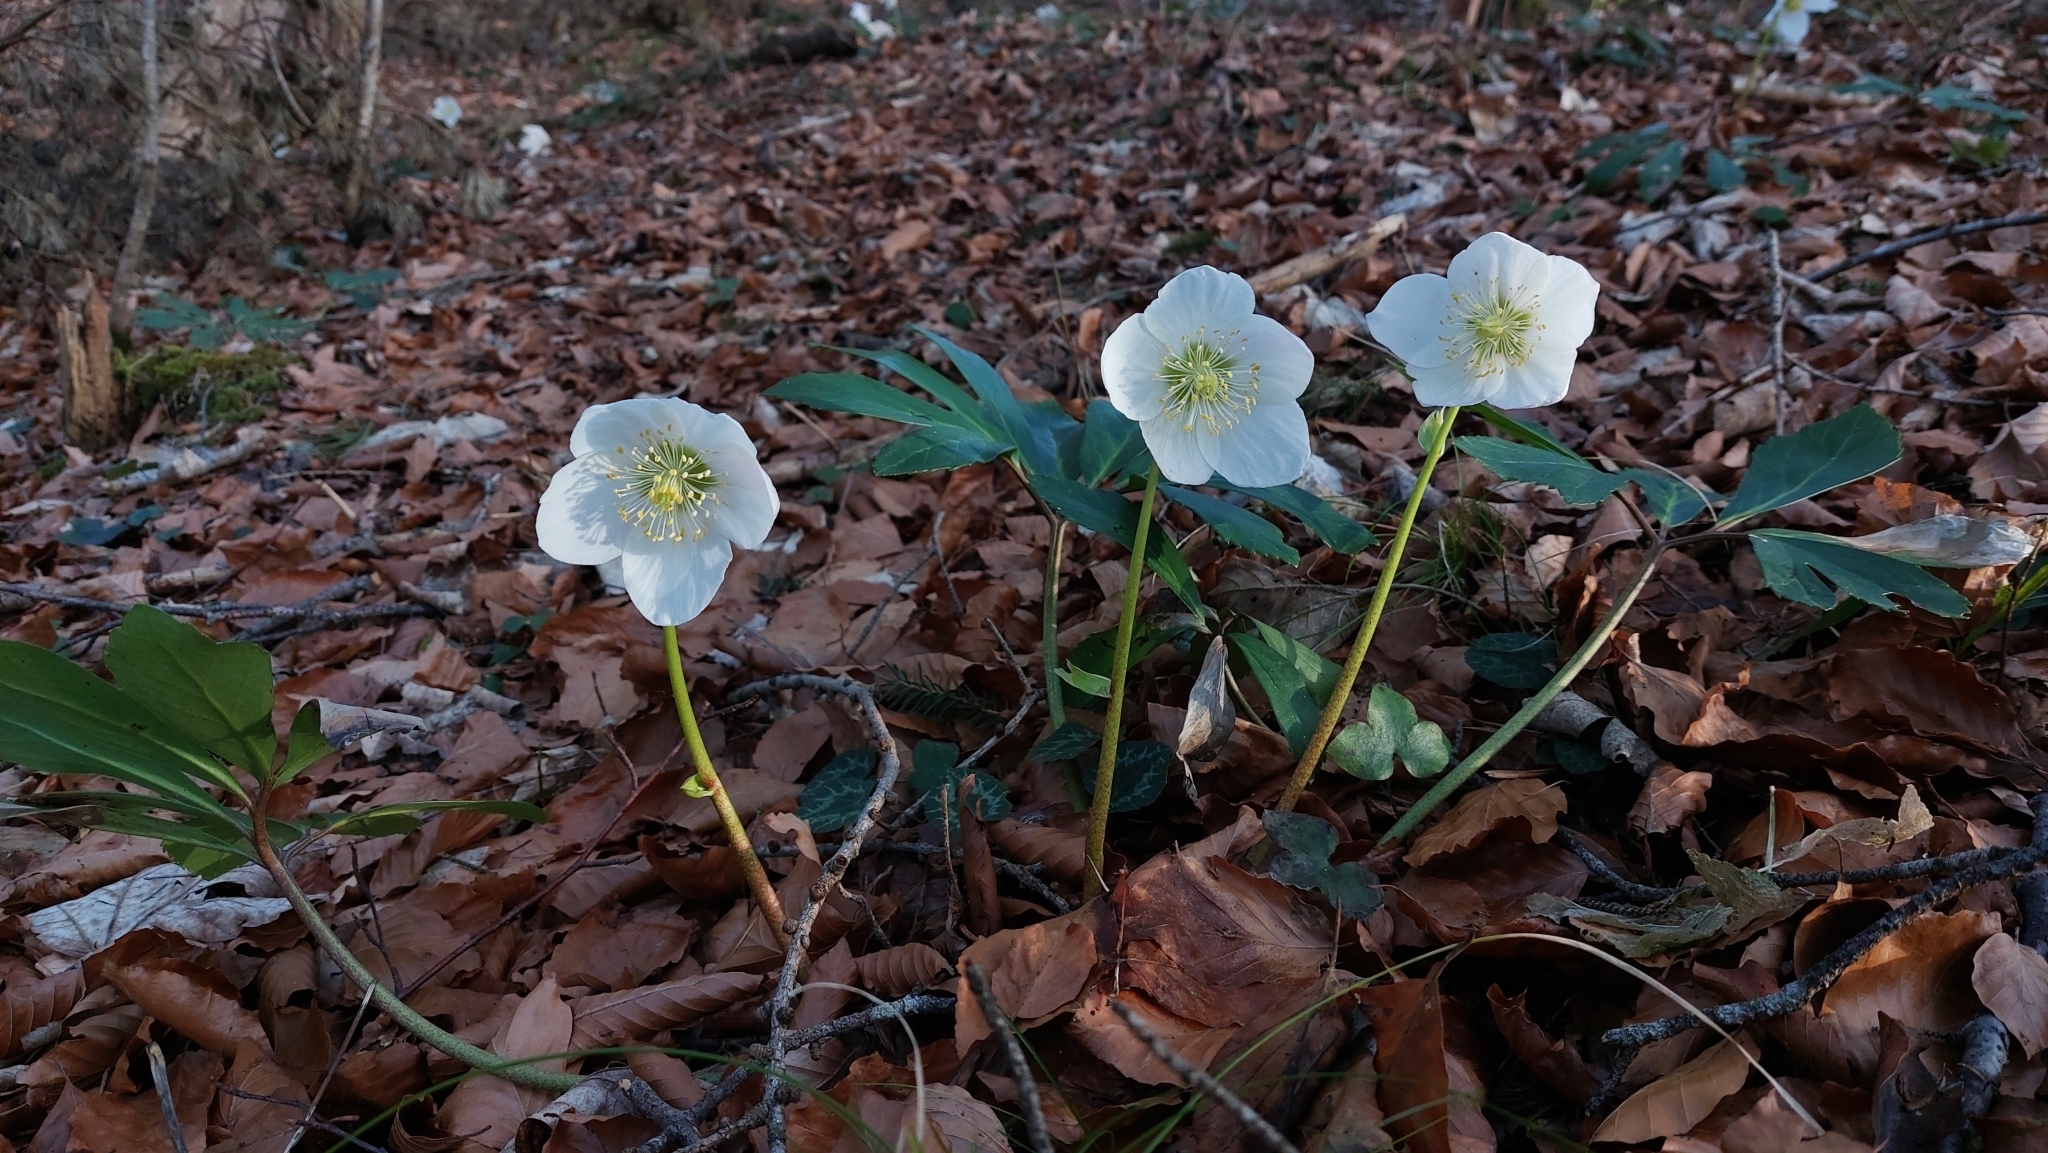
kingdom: Plantae
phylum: Tracheophyta
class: Magnoliopsida
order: Ranunculales
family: Ranunculaceae
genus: Helleborus
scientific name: Helleborus niger
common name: Black hellebore
